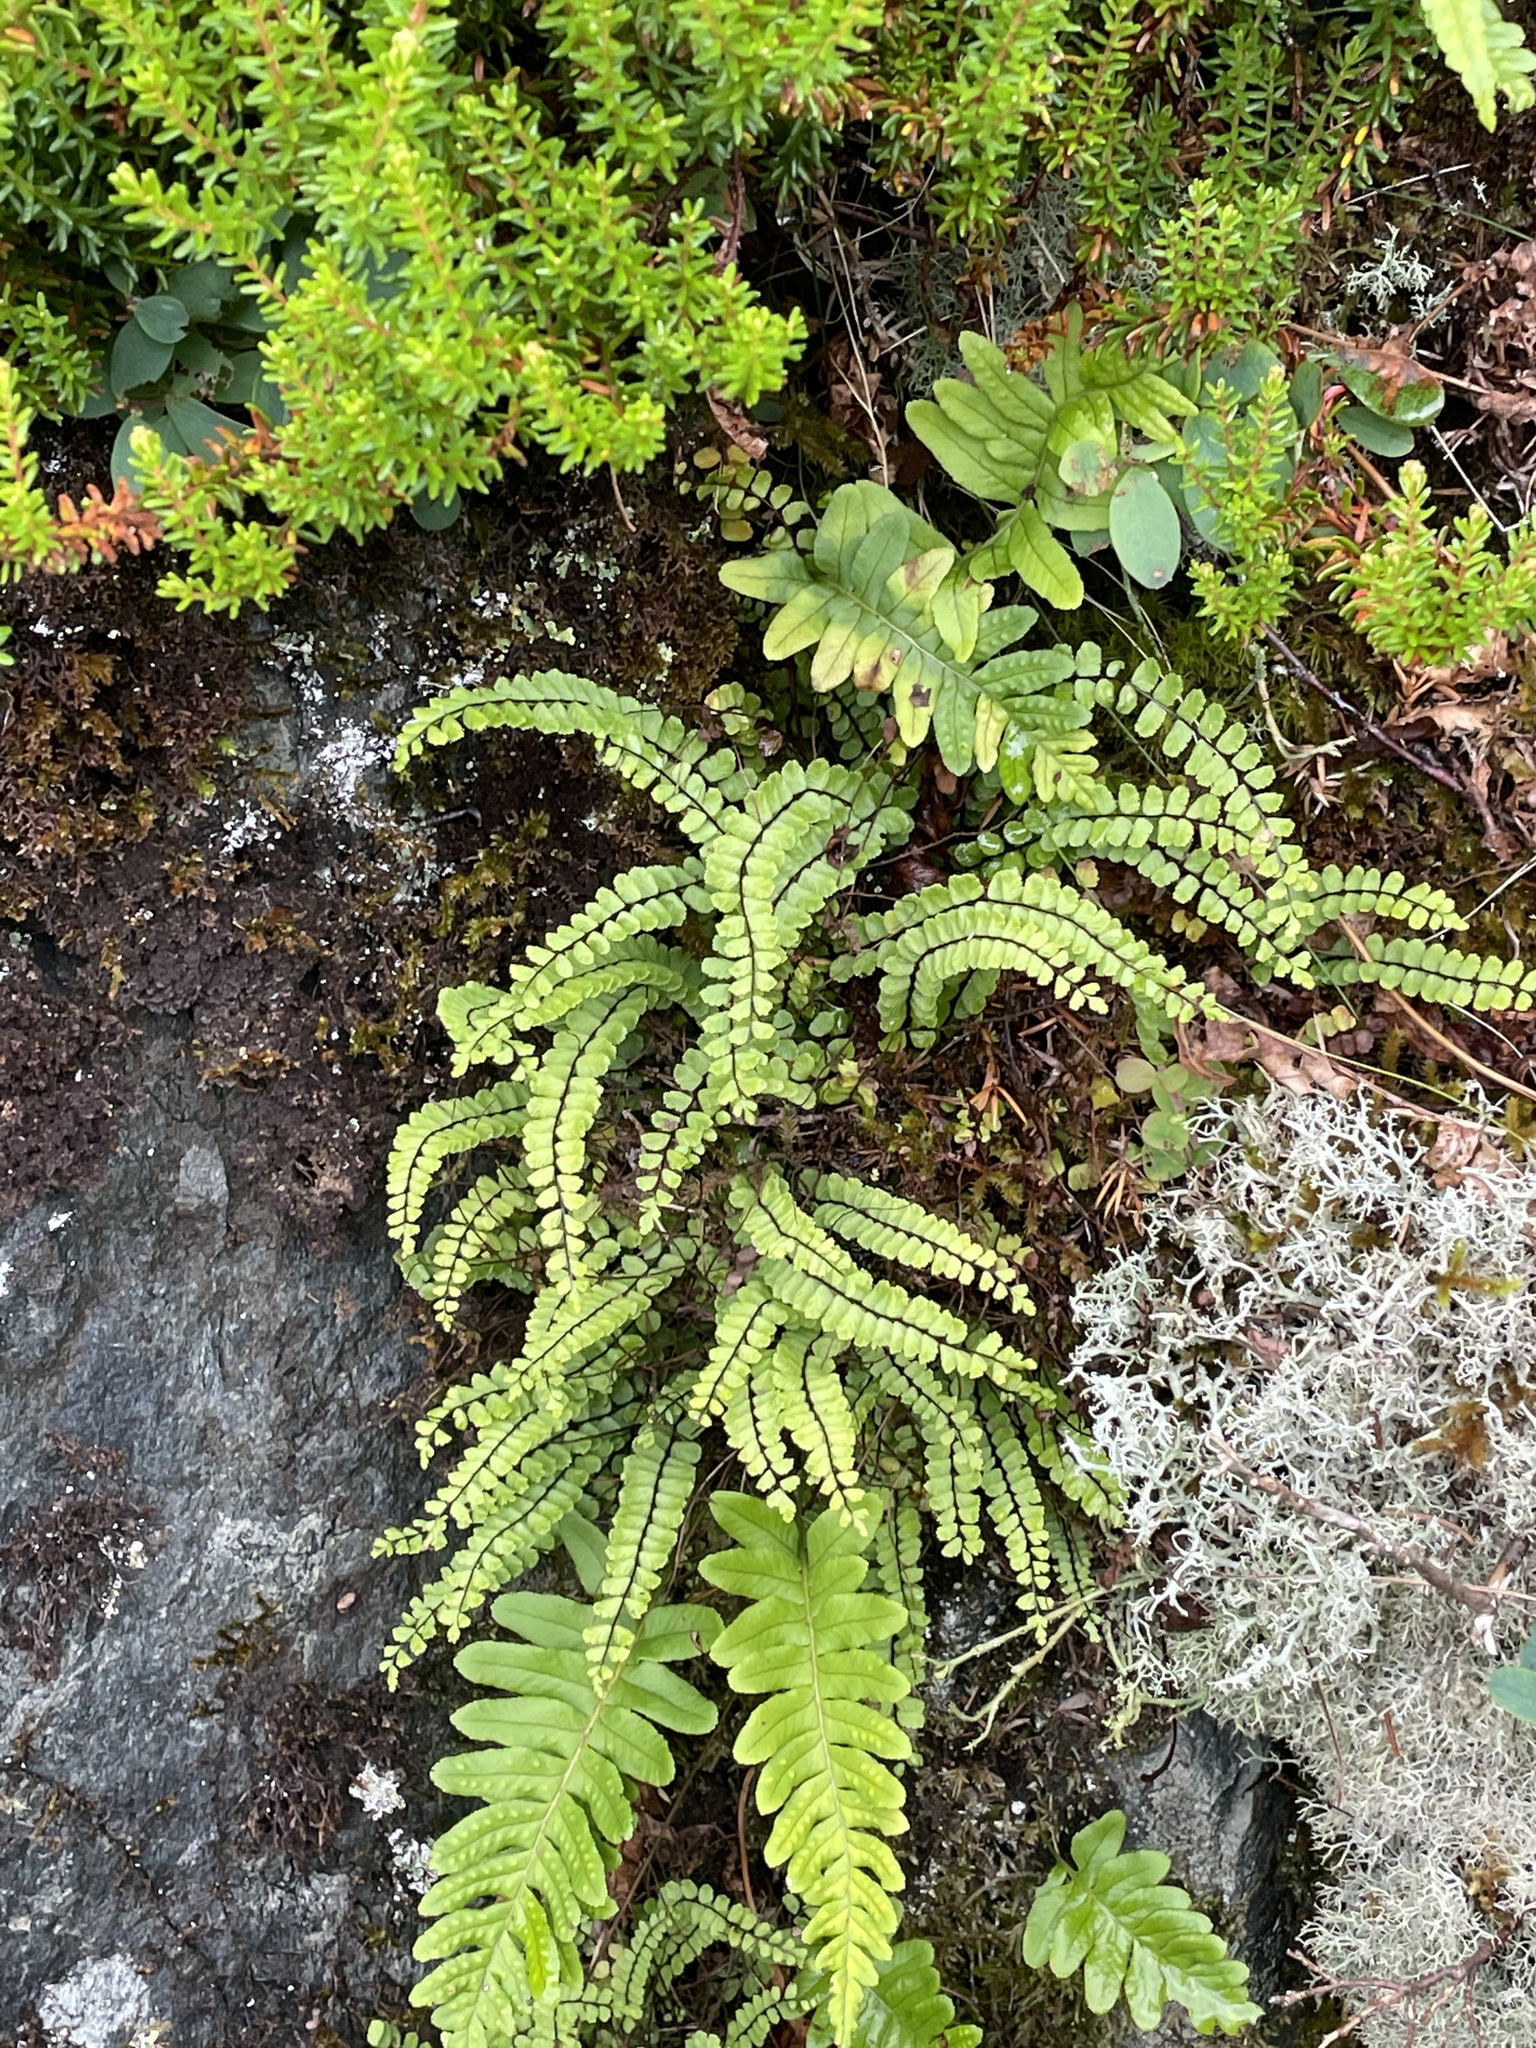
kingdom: Plantae
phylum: Tracheophyta
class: Polypodiopsida
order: Polypodiales
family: Aspleniaceae
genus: Asplenium
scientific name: Asplenium trichomanes
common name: Maidenhair spleenwort
